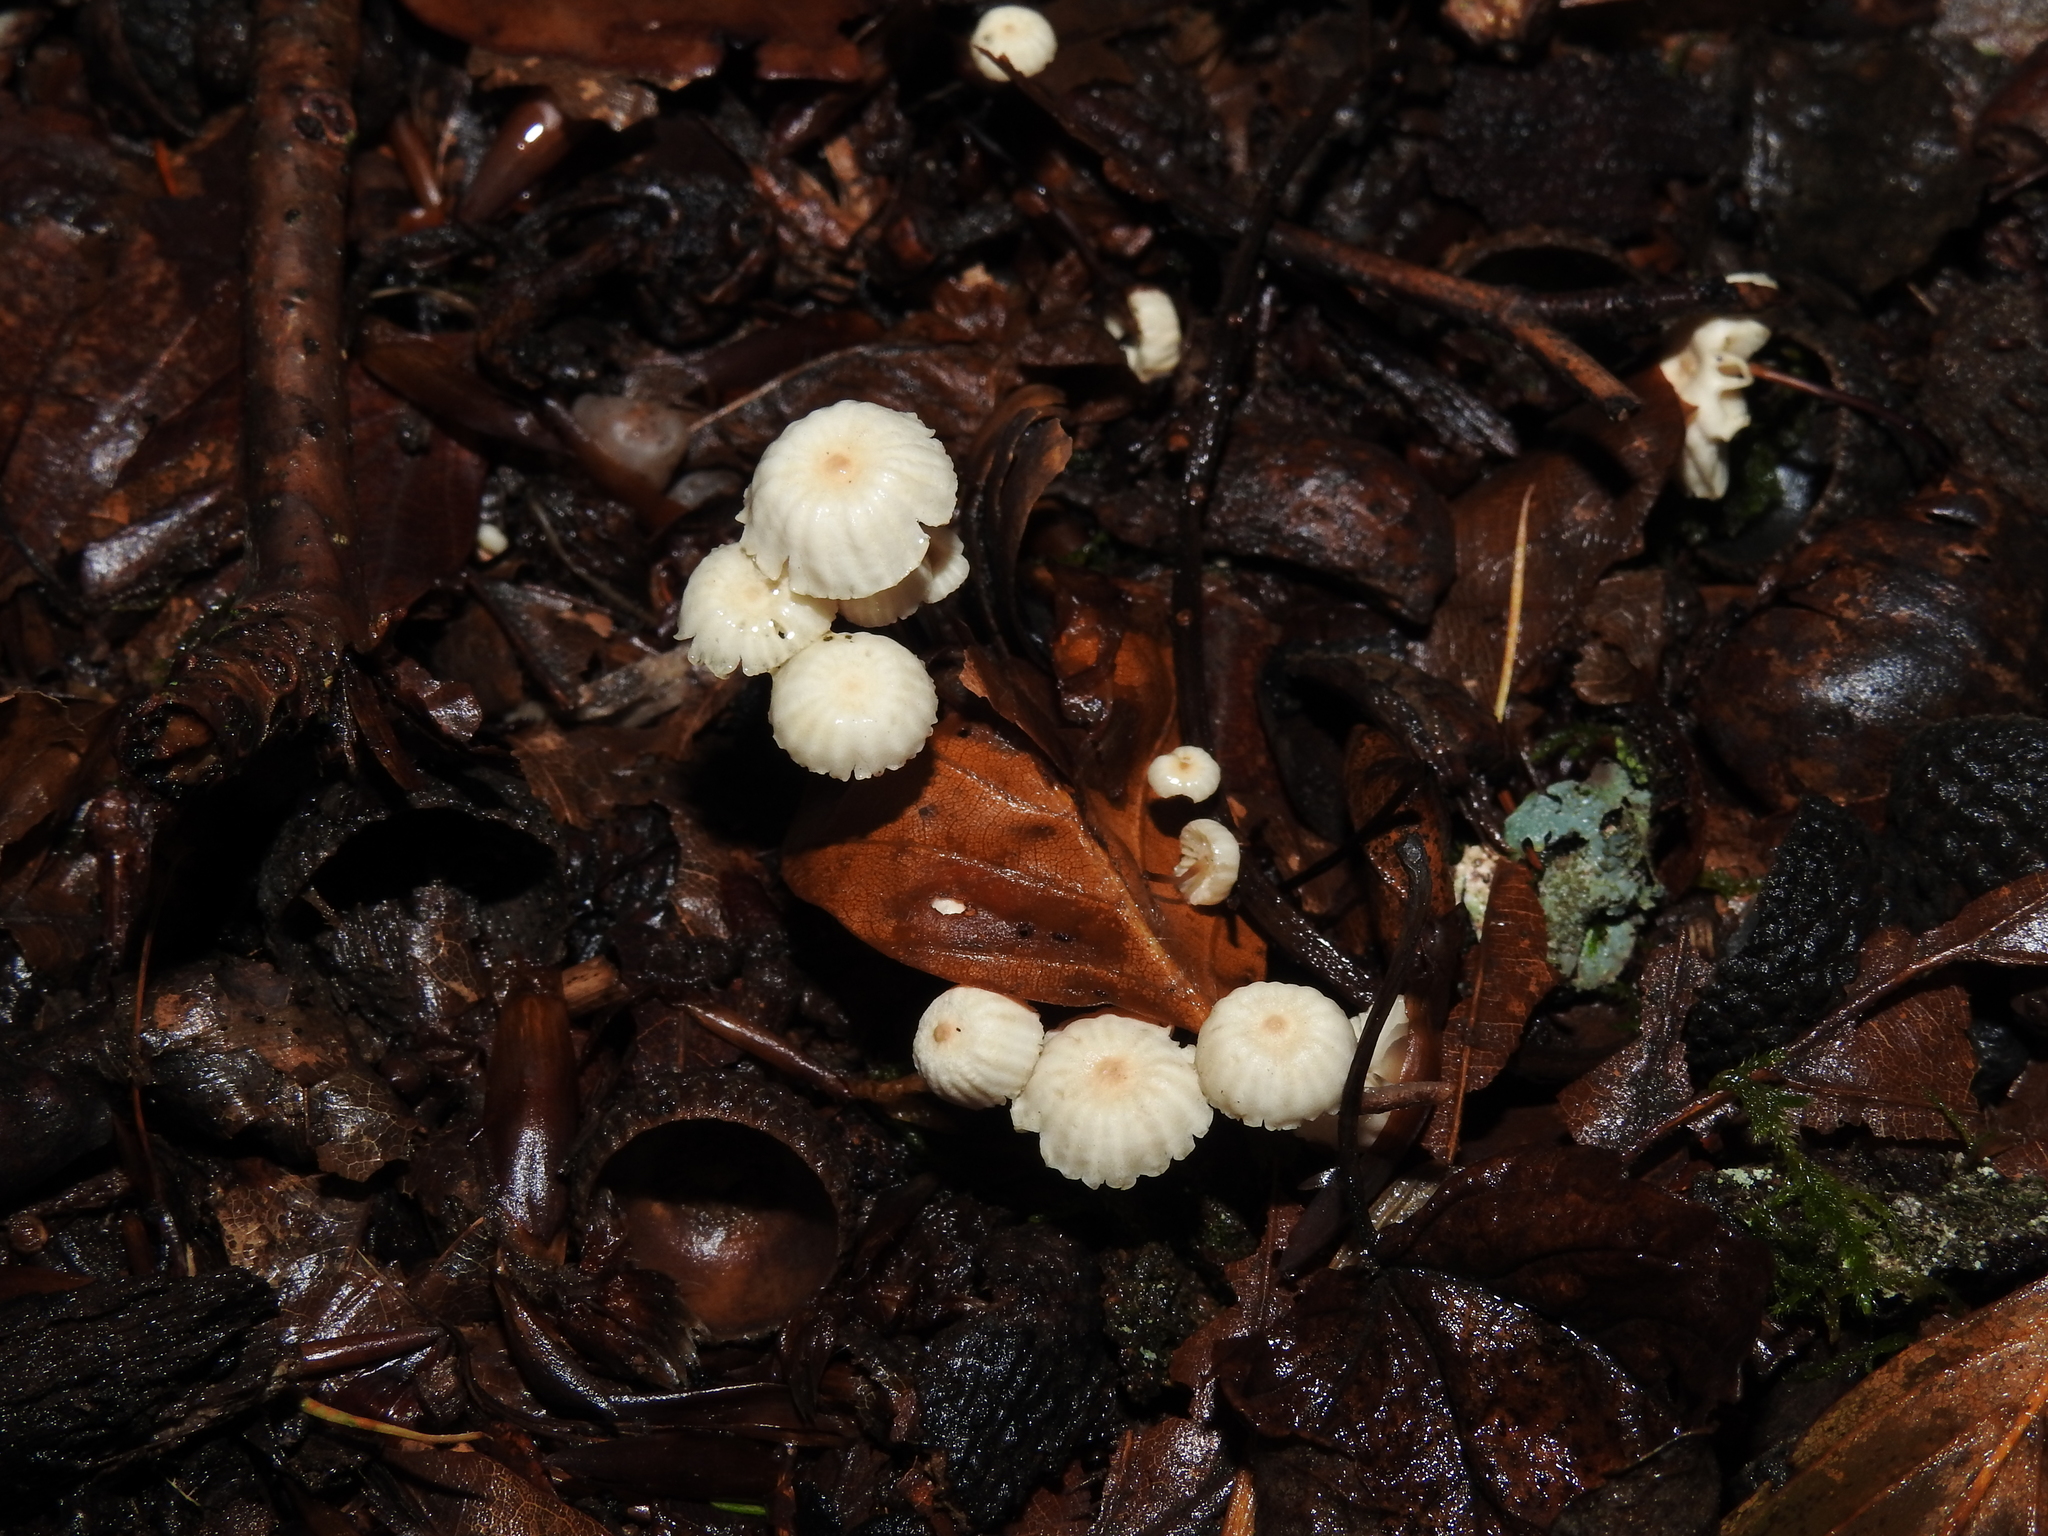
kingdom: Fungi
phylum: Basidiomycota
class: Agaricomycetes
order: Agaricales
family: Marasmiaceae
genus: Marasmius
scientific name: Marasmius rotula
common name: Collared parachute
